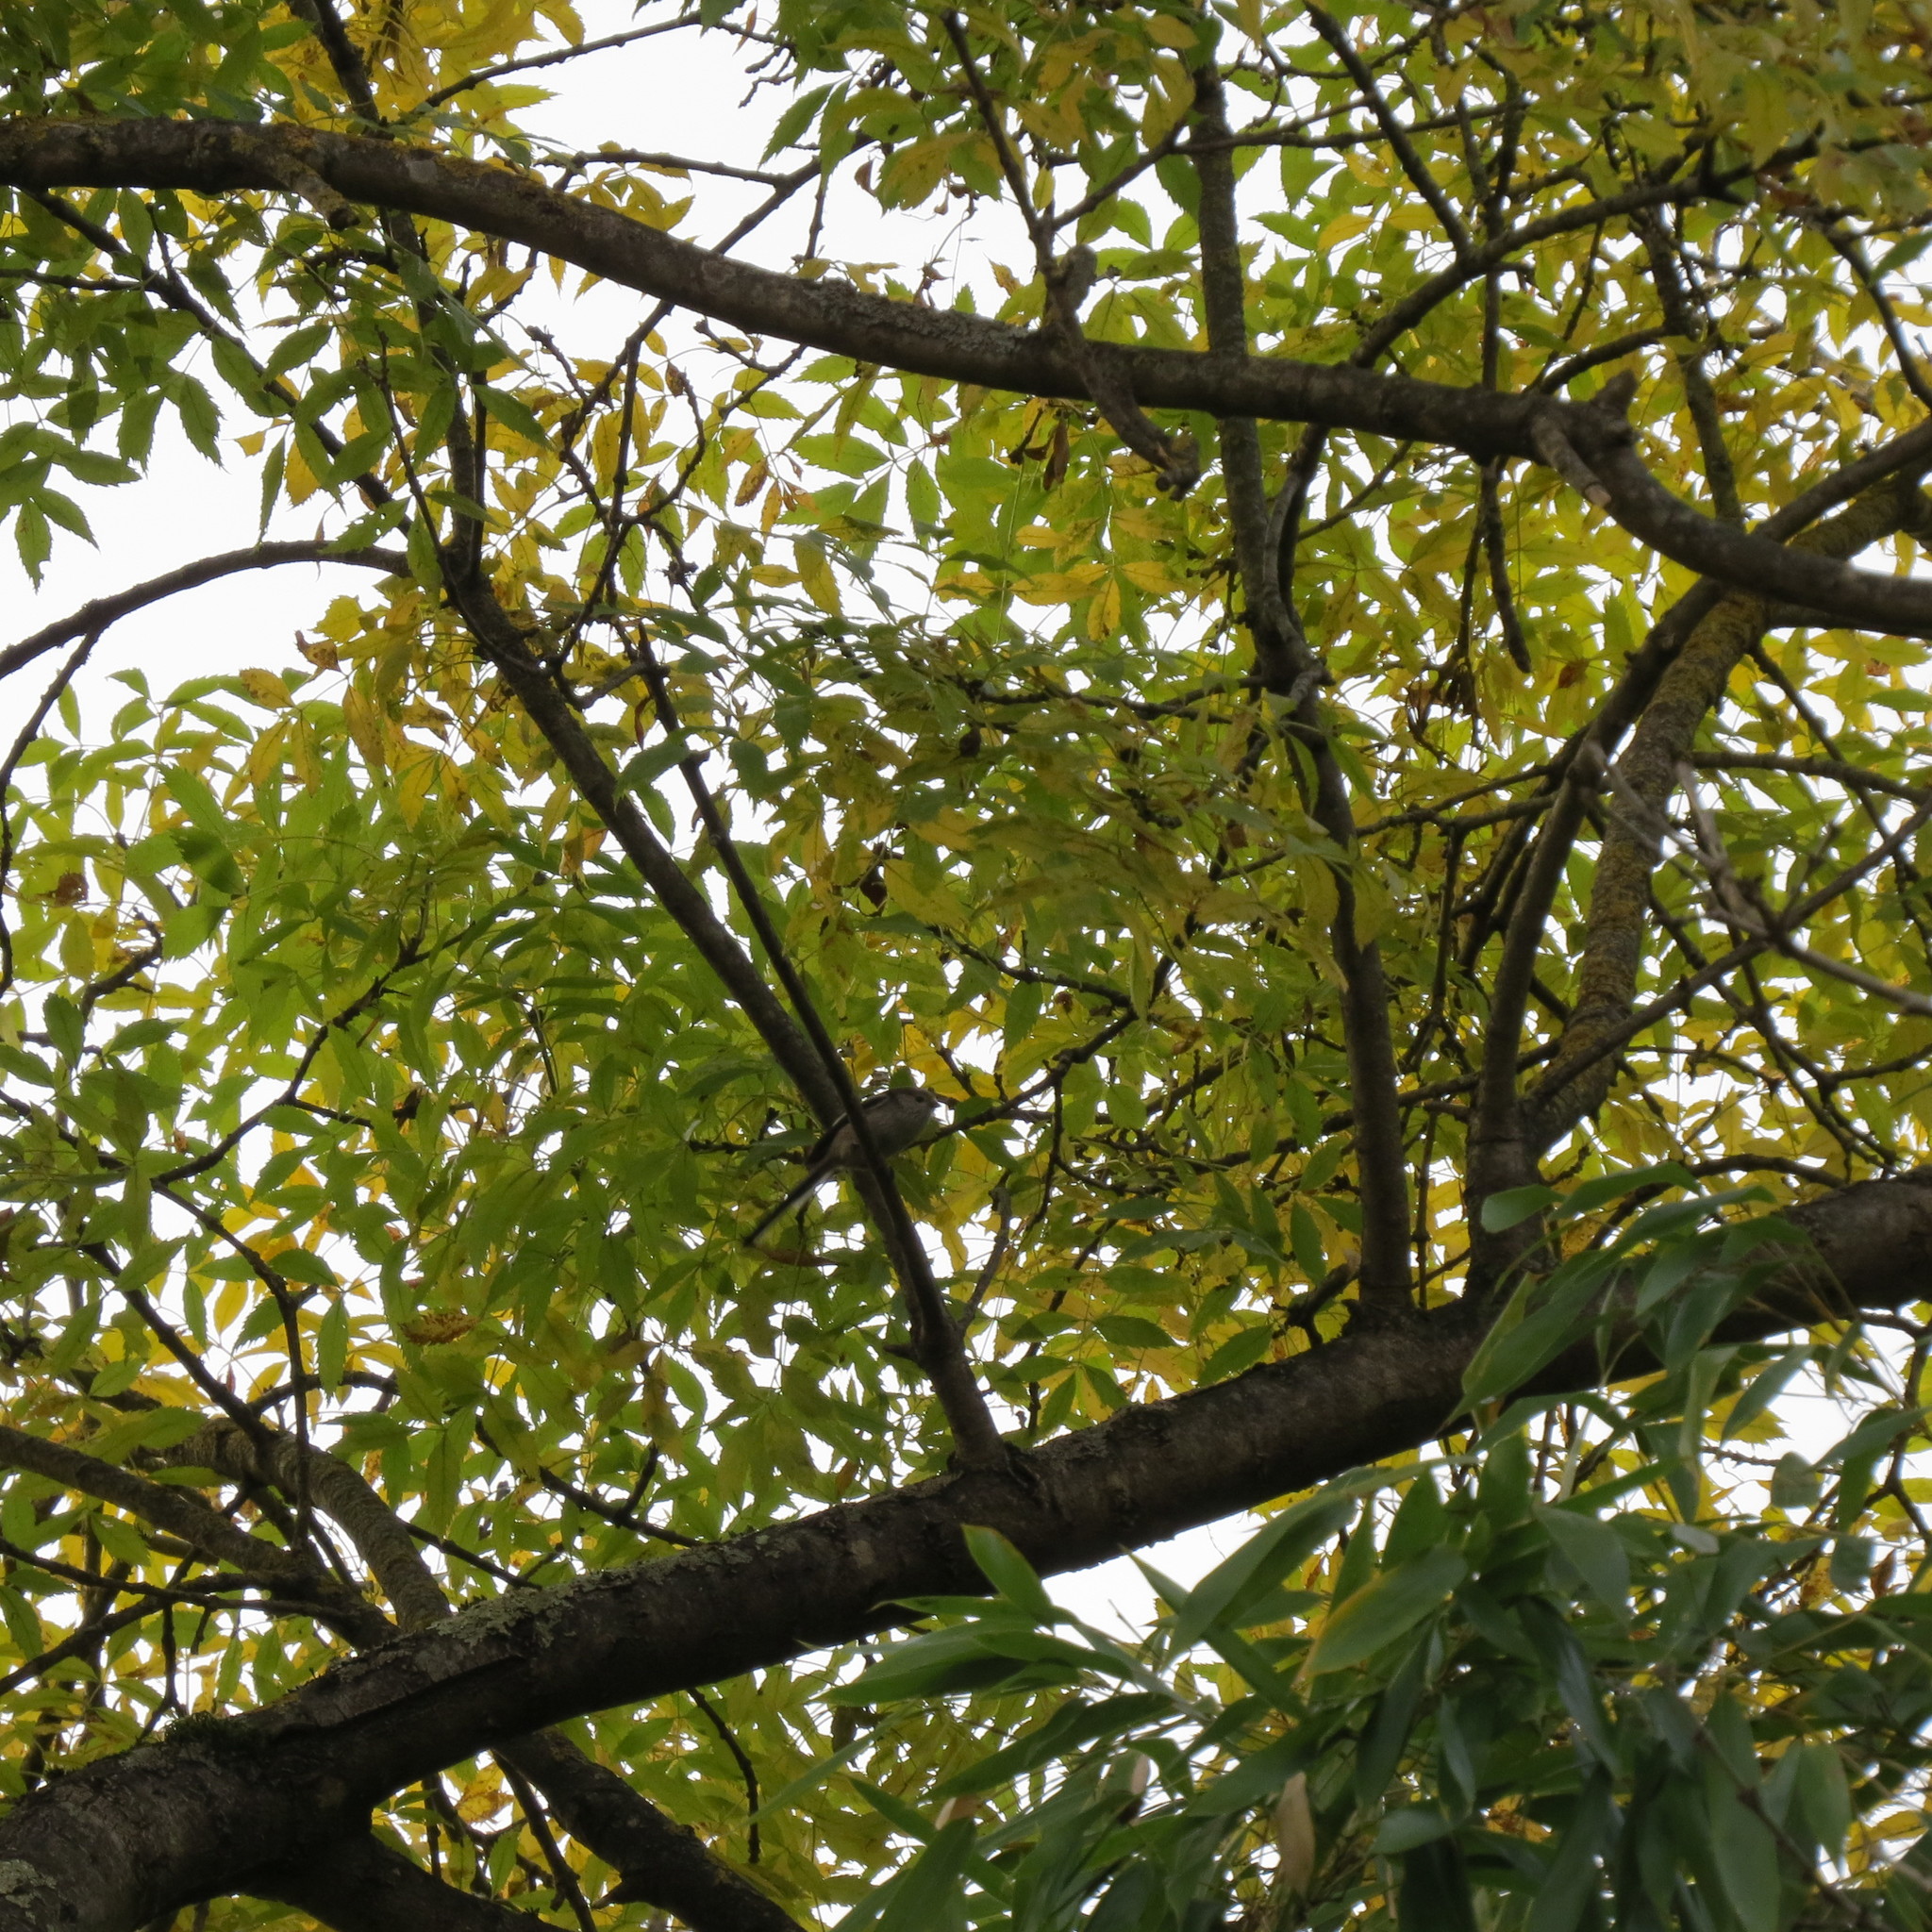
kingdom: Animalia
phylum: Chordata
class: Aves
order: Passeriformes
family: Aegithalidae
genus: Aegithalos
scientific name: Aegithalos caudatus
